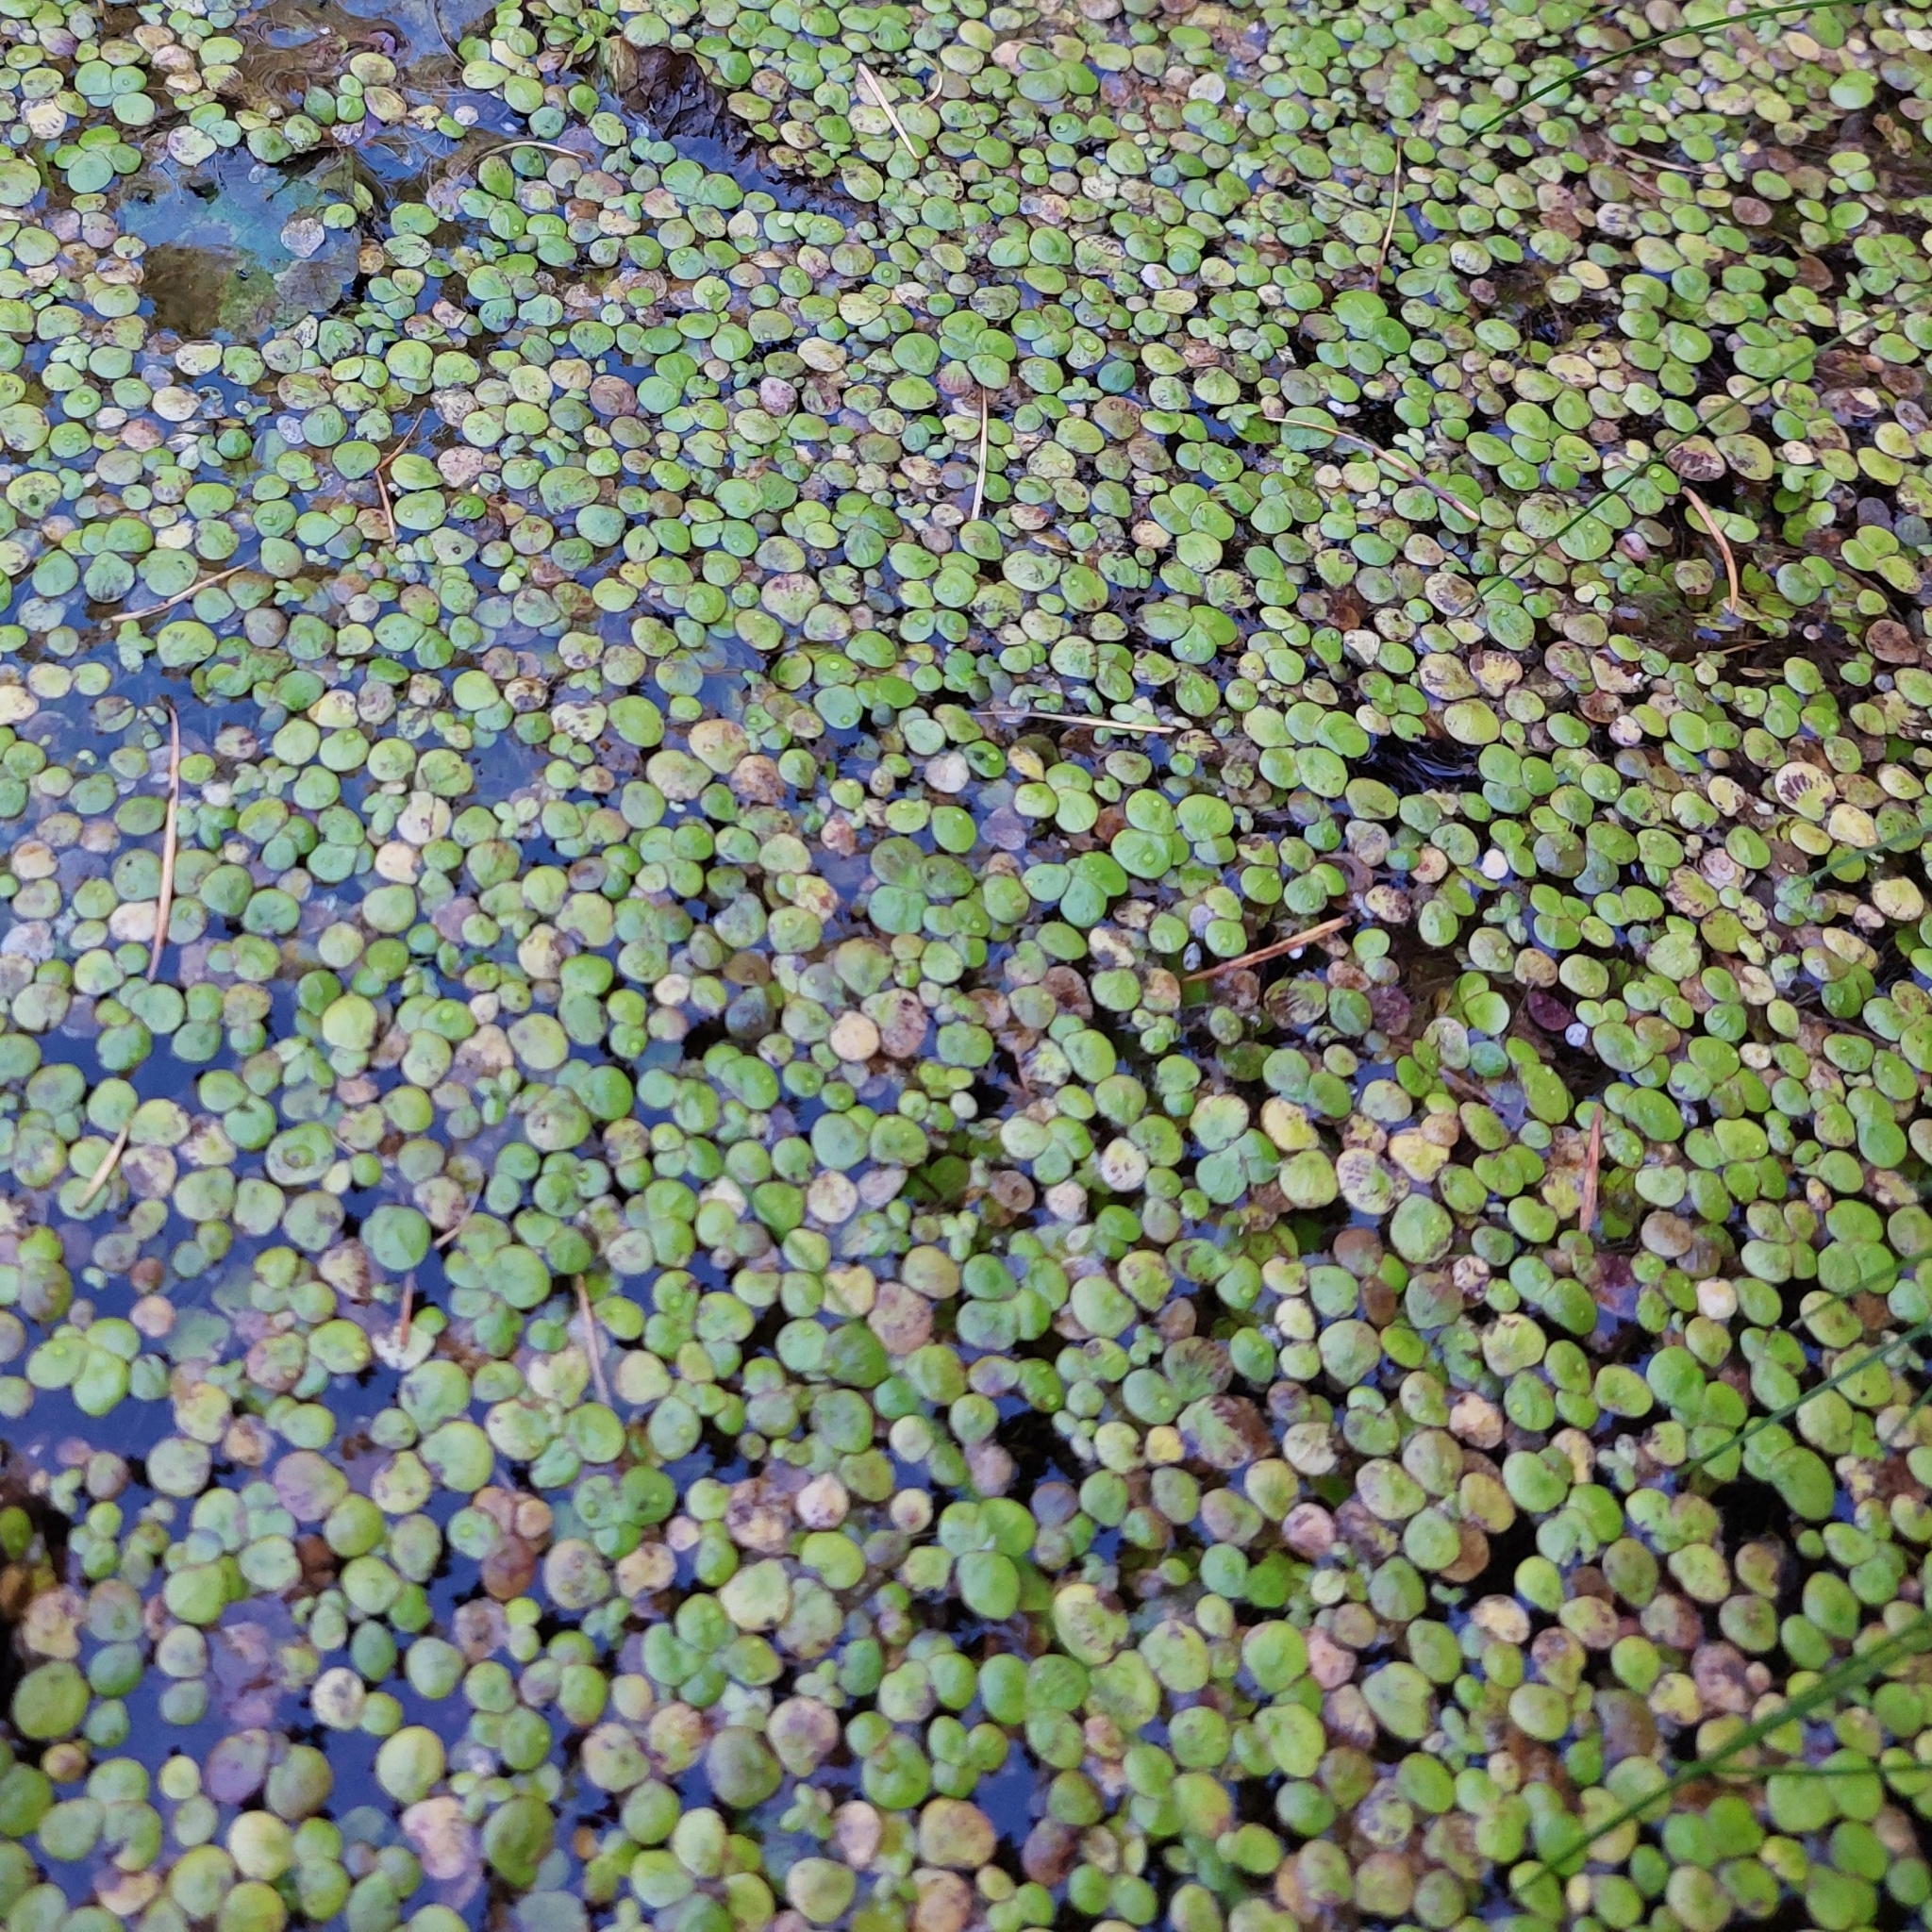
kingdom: Plantae
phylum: Tracheophyta
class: Liliopsida
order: Alismatales
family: Araceae
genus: Spirodela
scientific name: Spirodela polyrhiza
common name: Great duckweed
